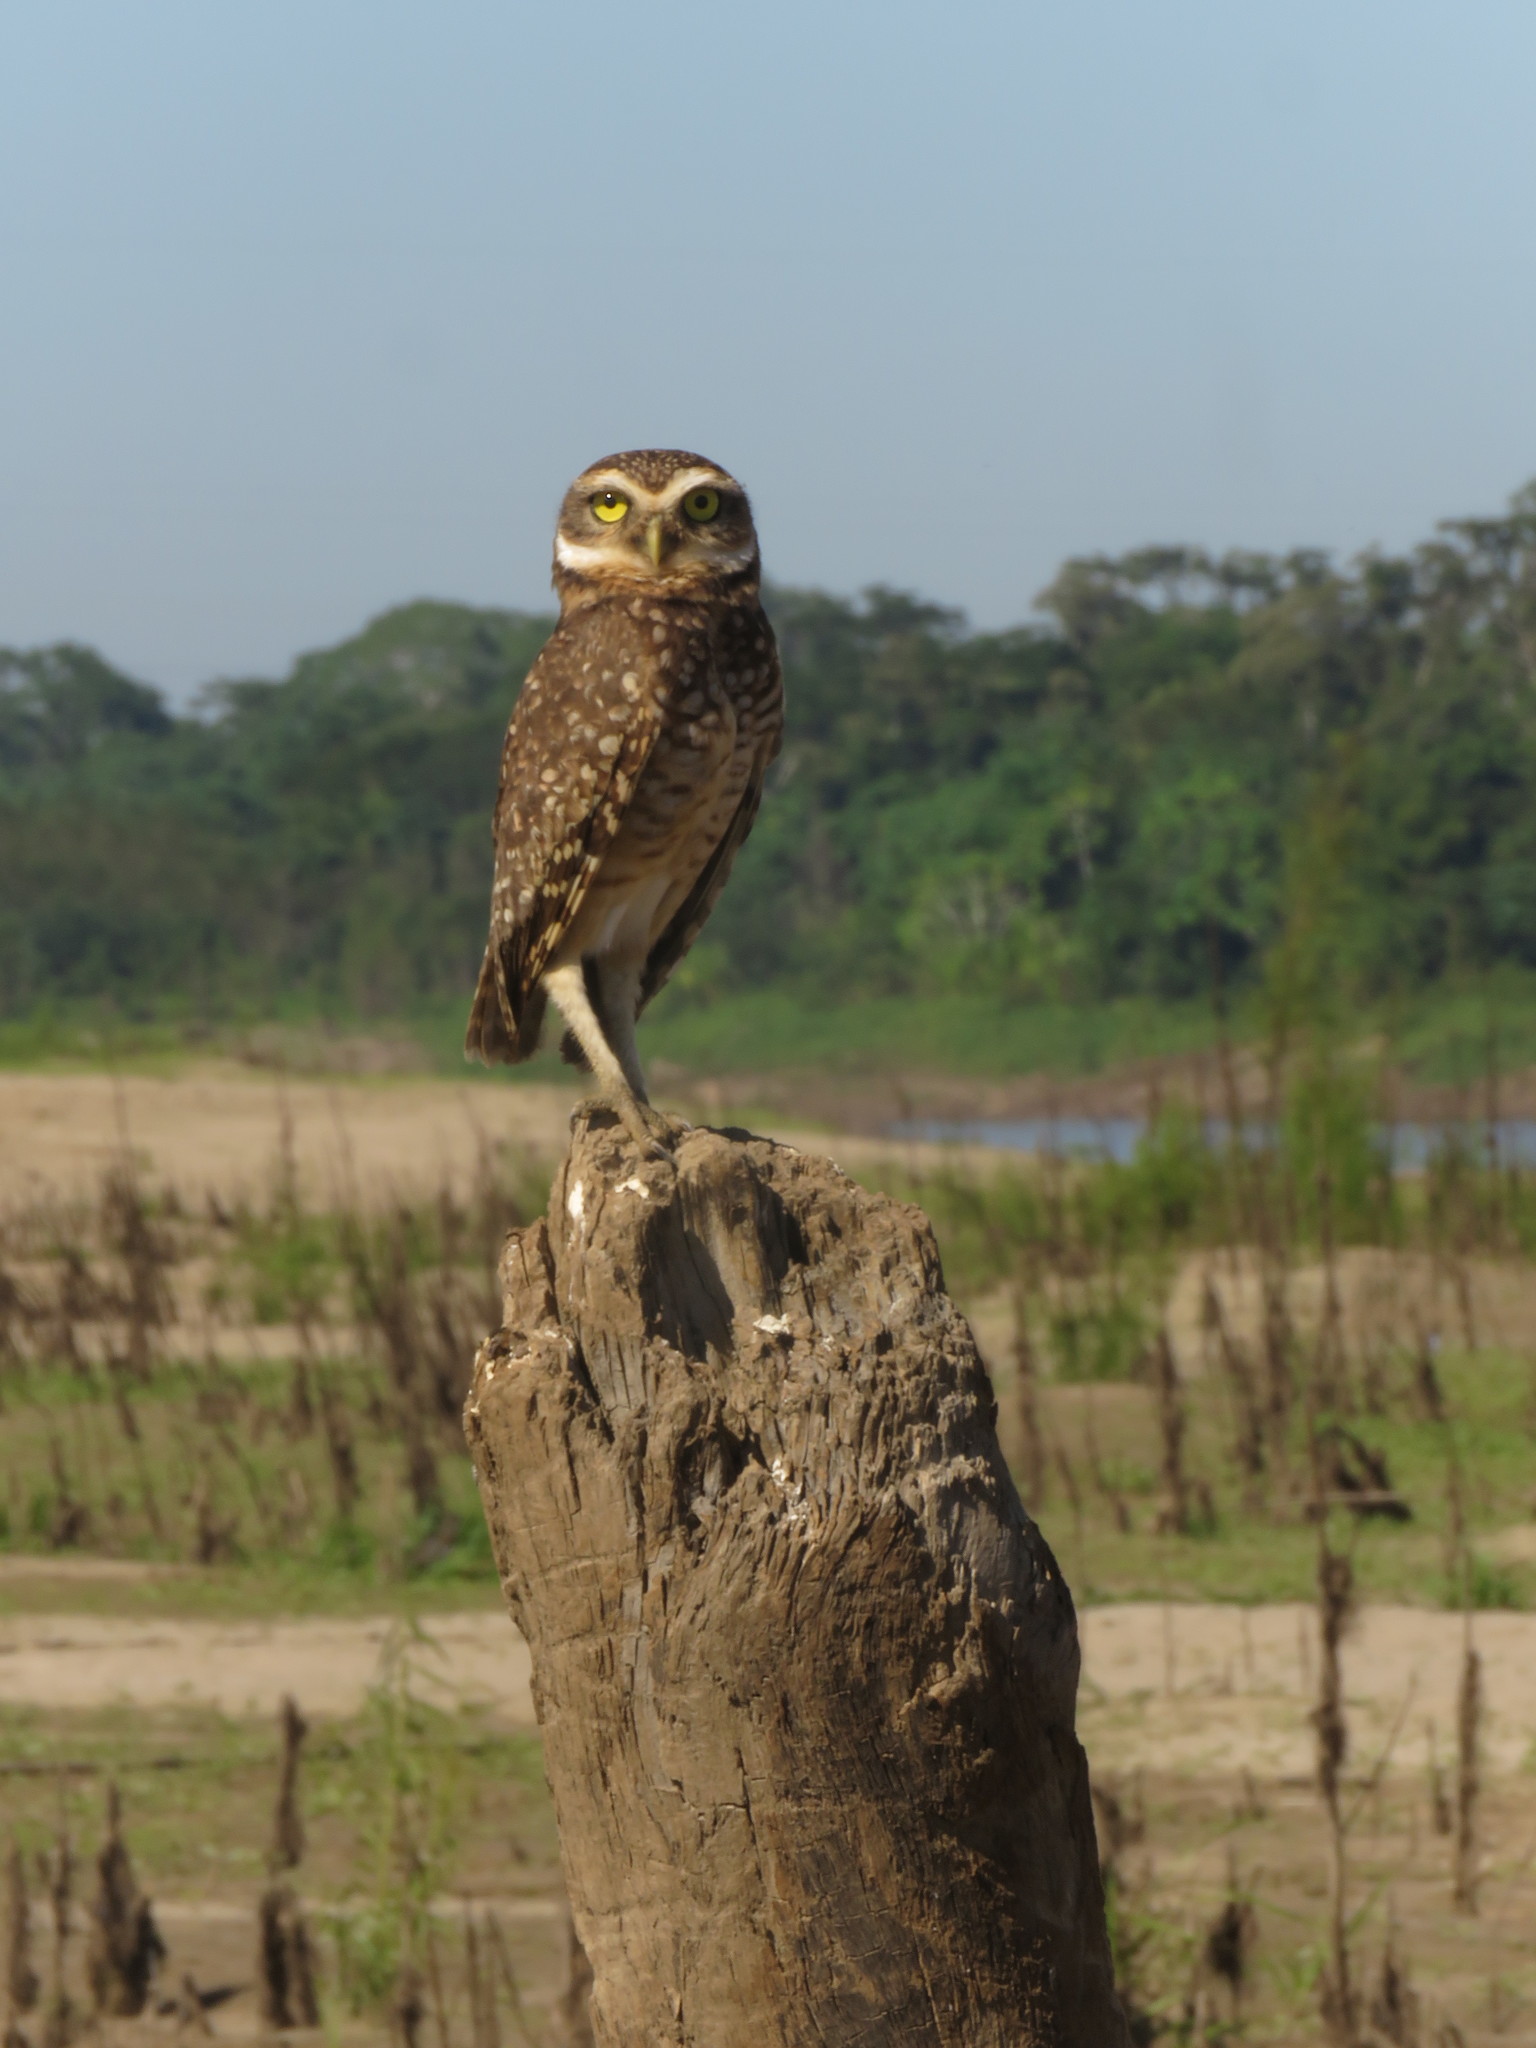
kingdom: Animalia
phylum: Chordata
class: Aves
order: Strigiformes
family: Strigidae
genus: Athene
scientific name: Athene cunicularia
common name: Burrowing owl
